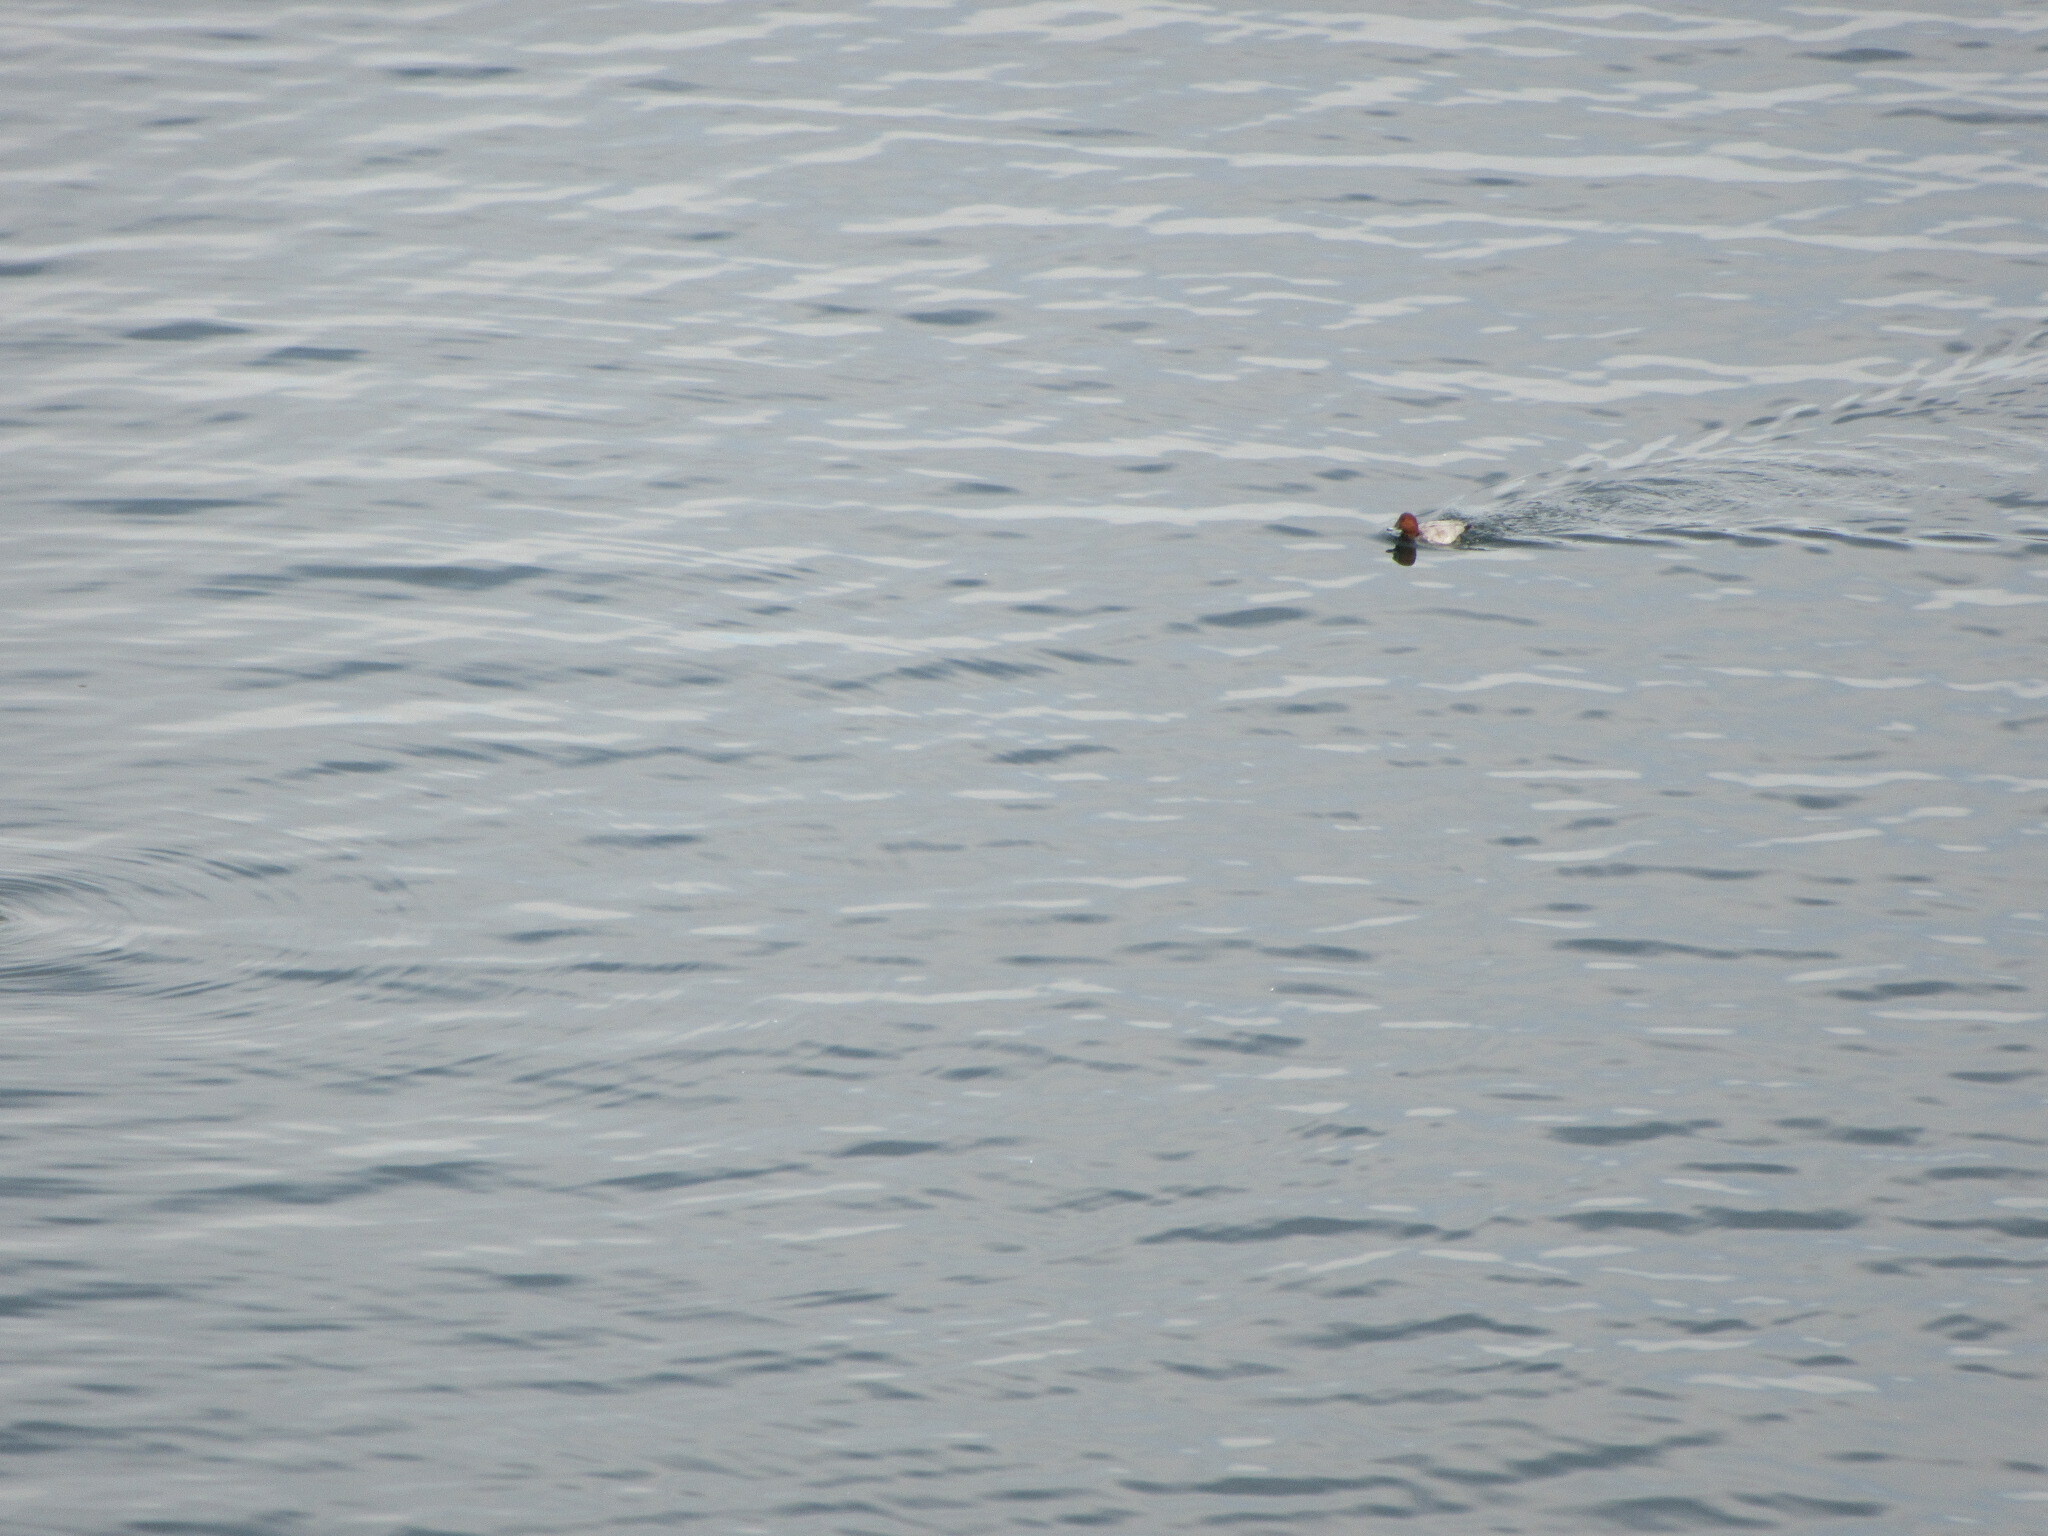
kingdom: Animalia
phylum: Chordata
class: Aves
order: Anseriformes
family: Anatidae
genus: Aythya
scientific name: Aythya ferina
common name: Common pochard
